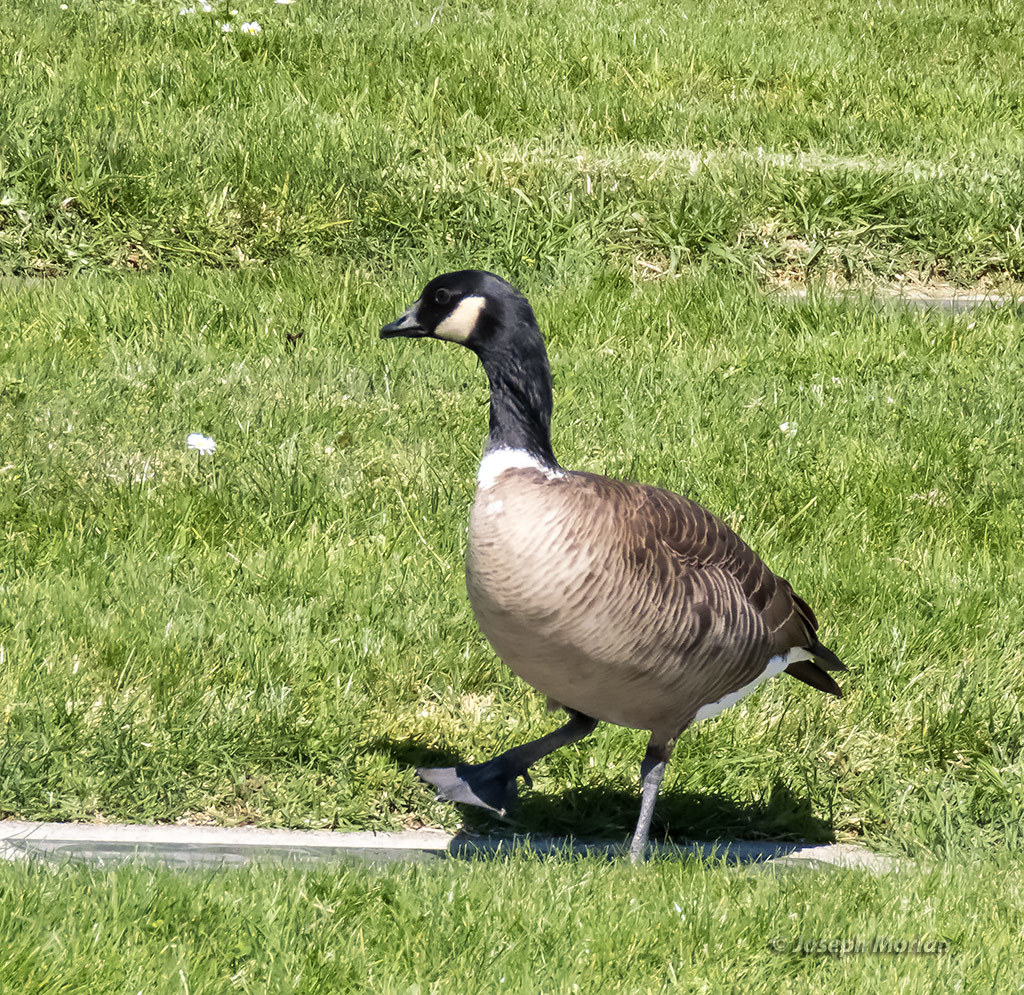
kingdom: Animalia
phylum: Chordata
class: Aves
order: Anseriformes
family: Anatidae
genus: Branta
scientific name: Branta hutchinsii
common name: Cackling goose
